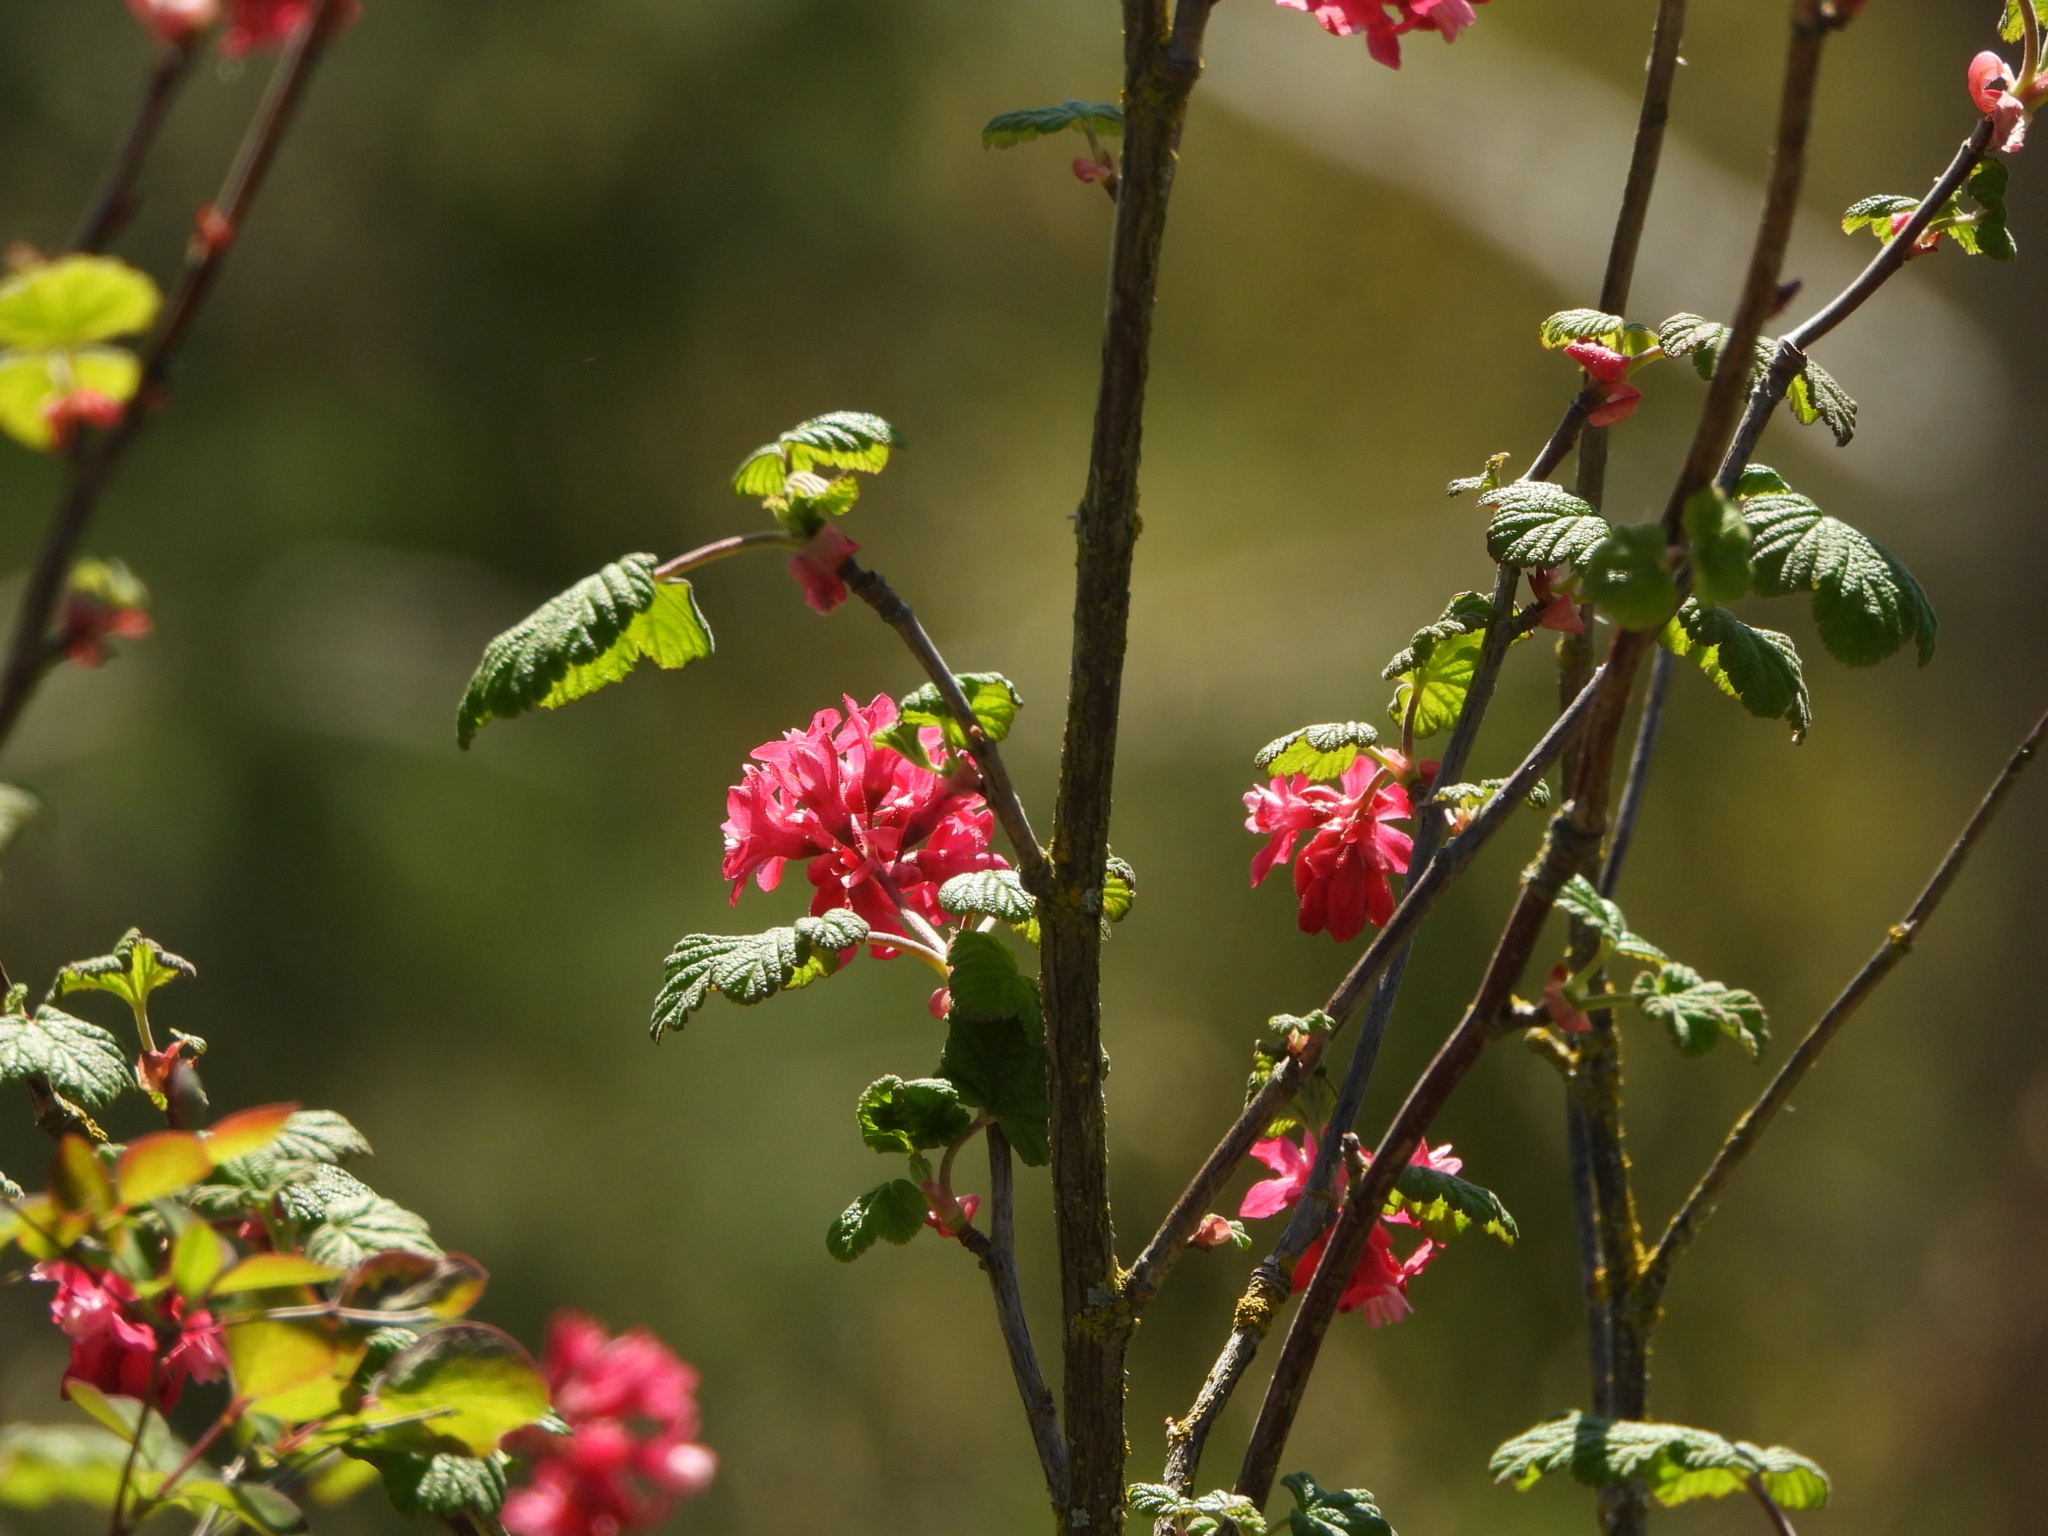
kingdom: Plantae
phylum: Tracheophyta
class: Magnoliopsida
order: Saxifragales
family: Grossulariaceae
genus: Ribes
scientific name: Ribes sanguineum
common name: Flowering currant
